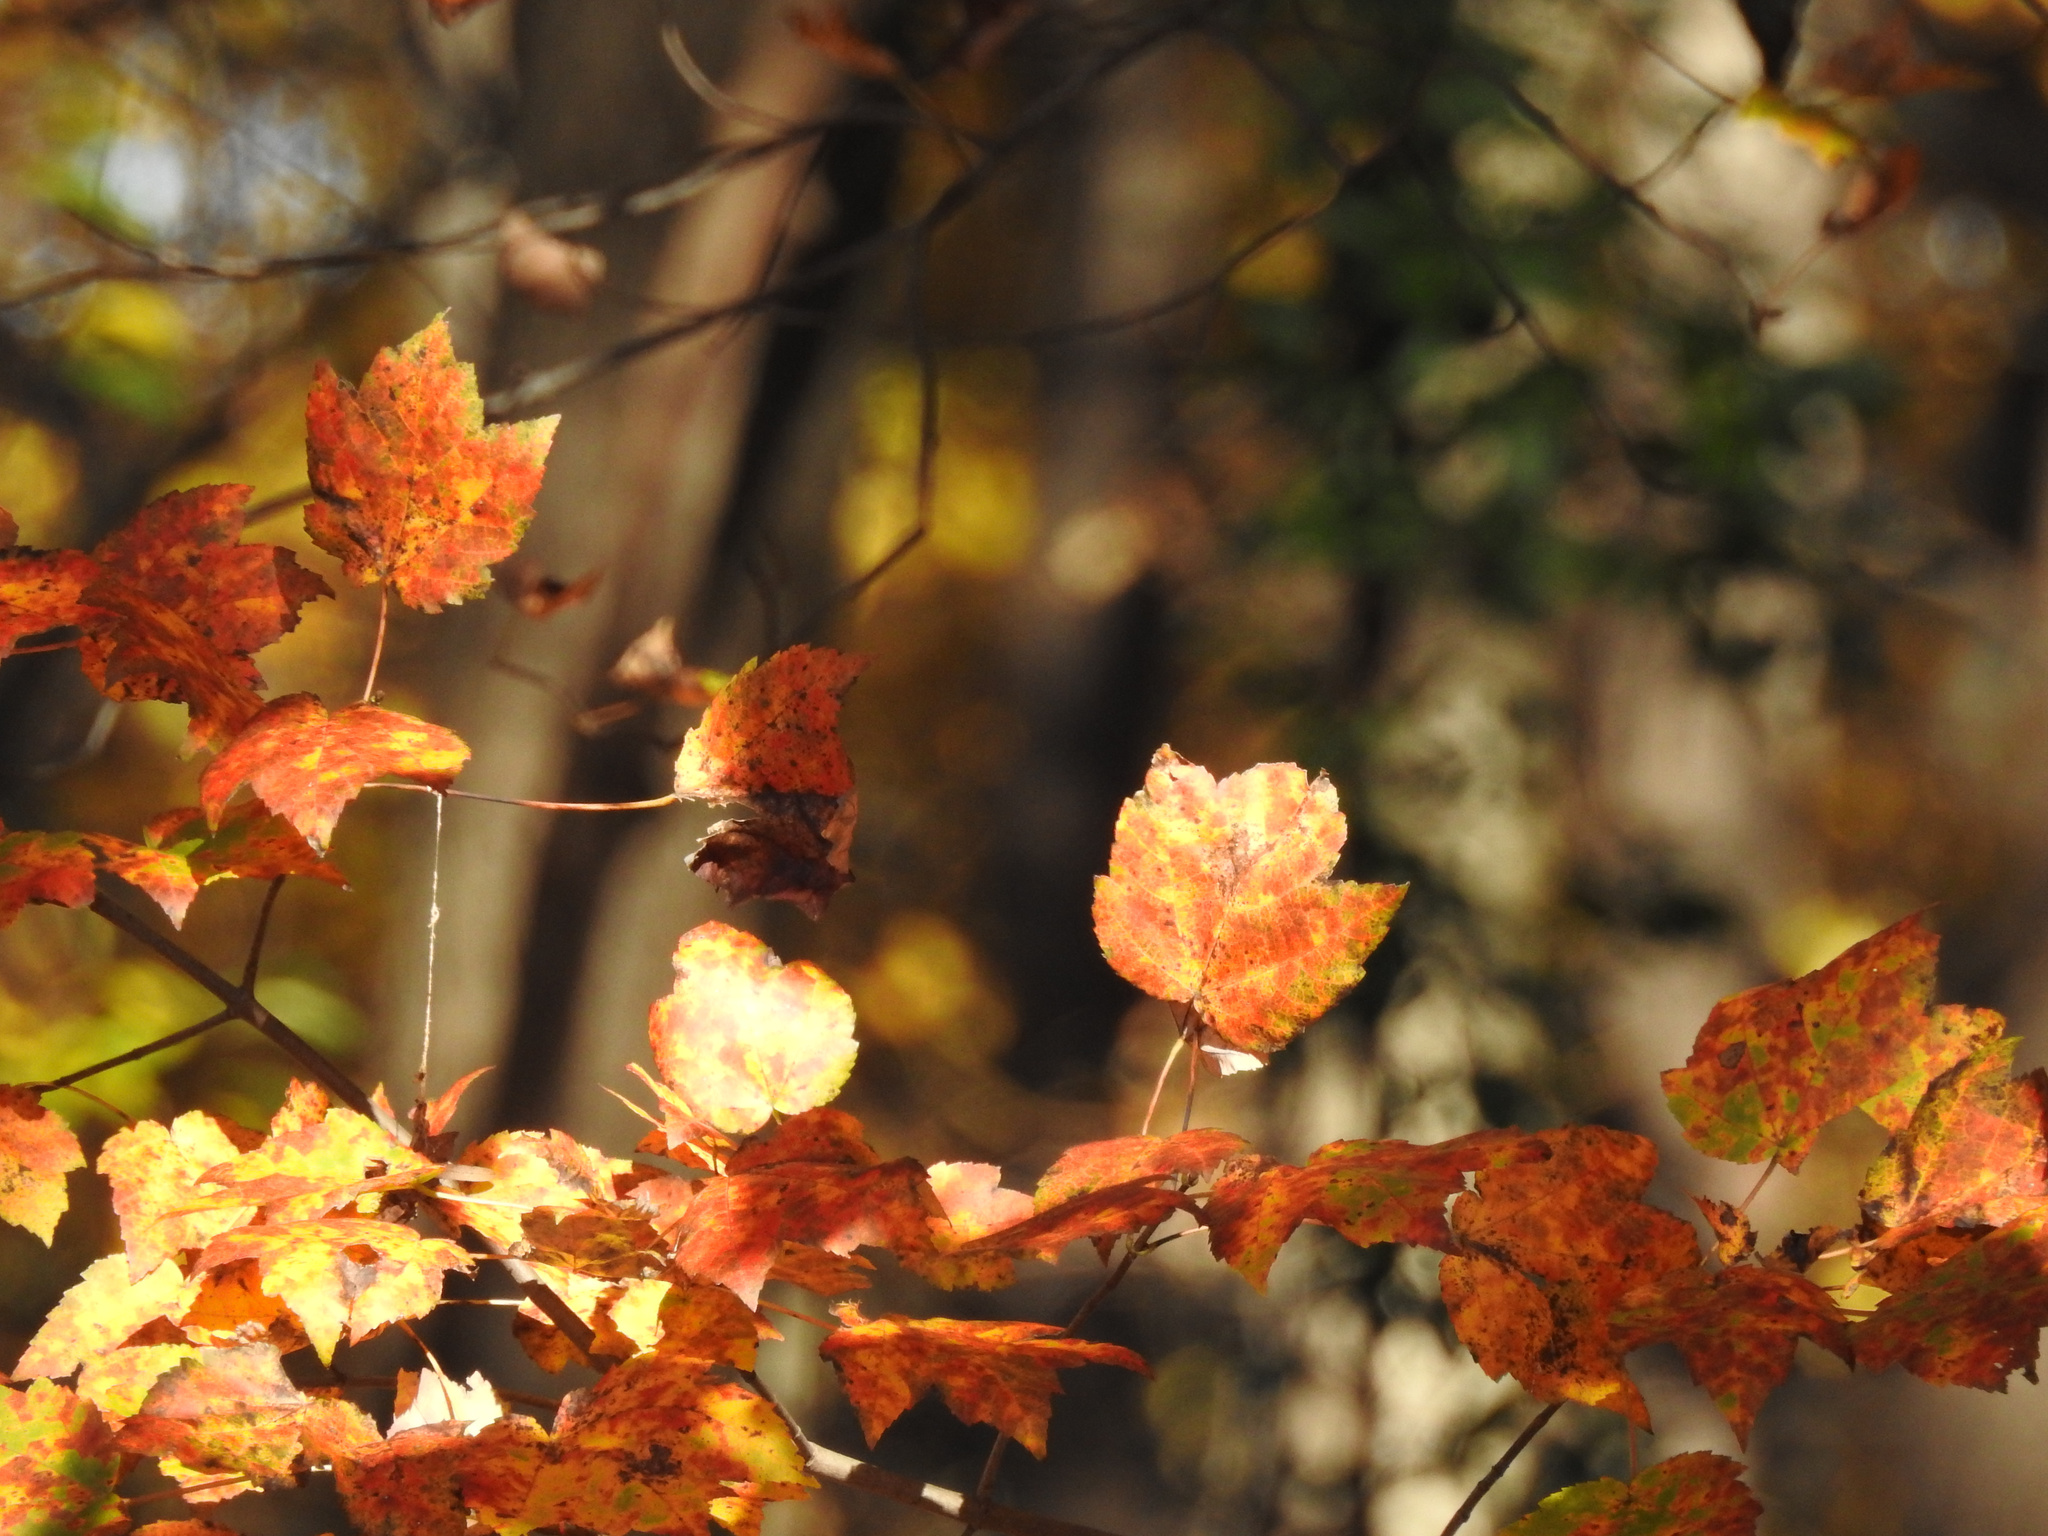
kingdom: Plantae
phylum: Tracheophyta
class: Magnoliopsida
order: Sapindales
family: Sapindaceae
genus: Acer
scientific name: Acer rubrum
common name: Red maple
